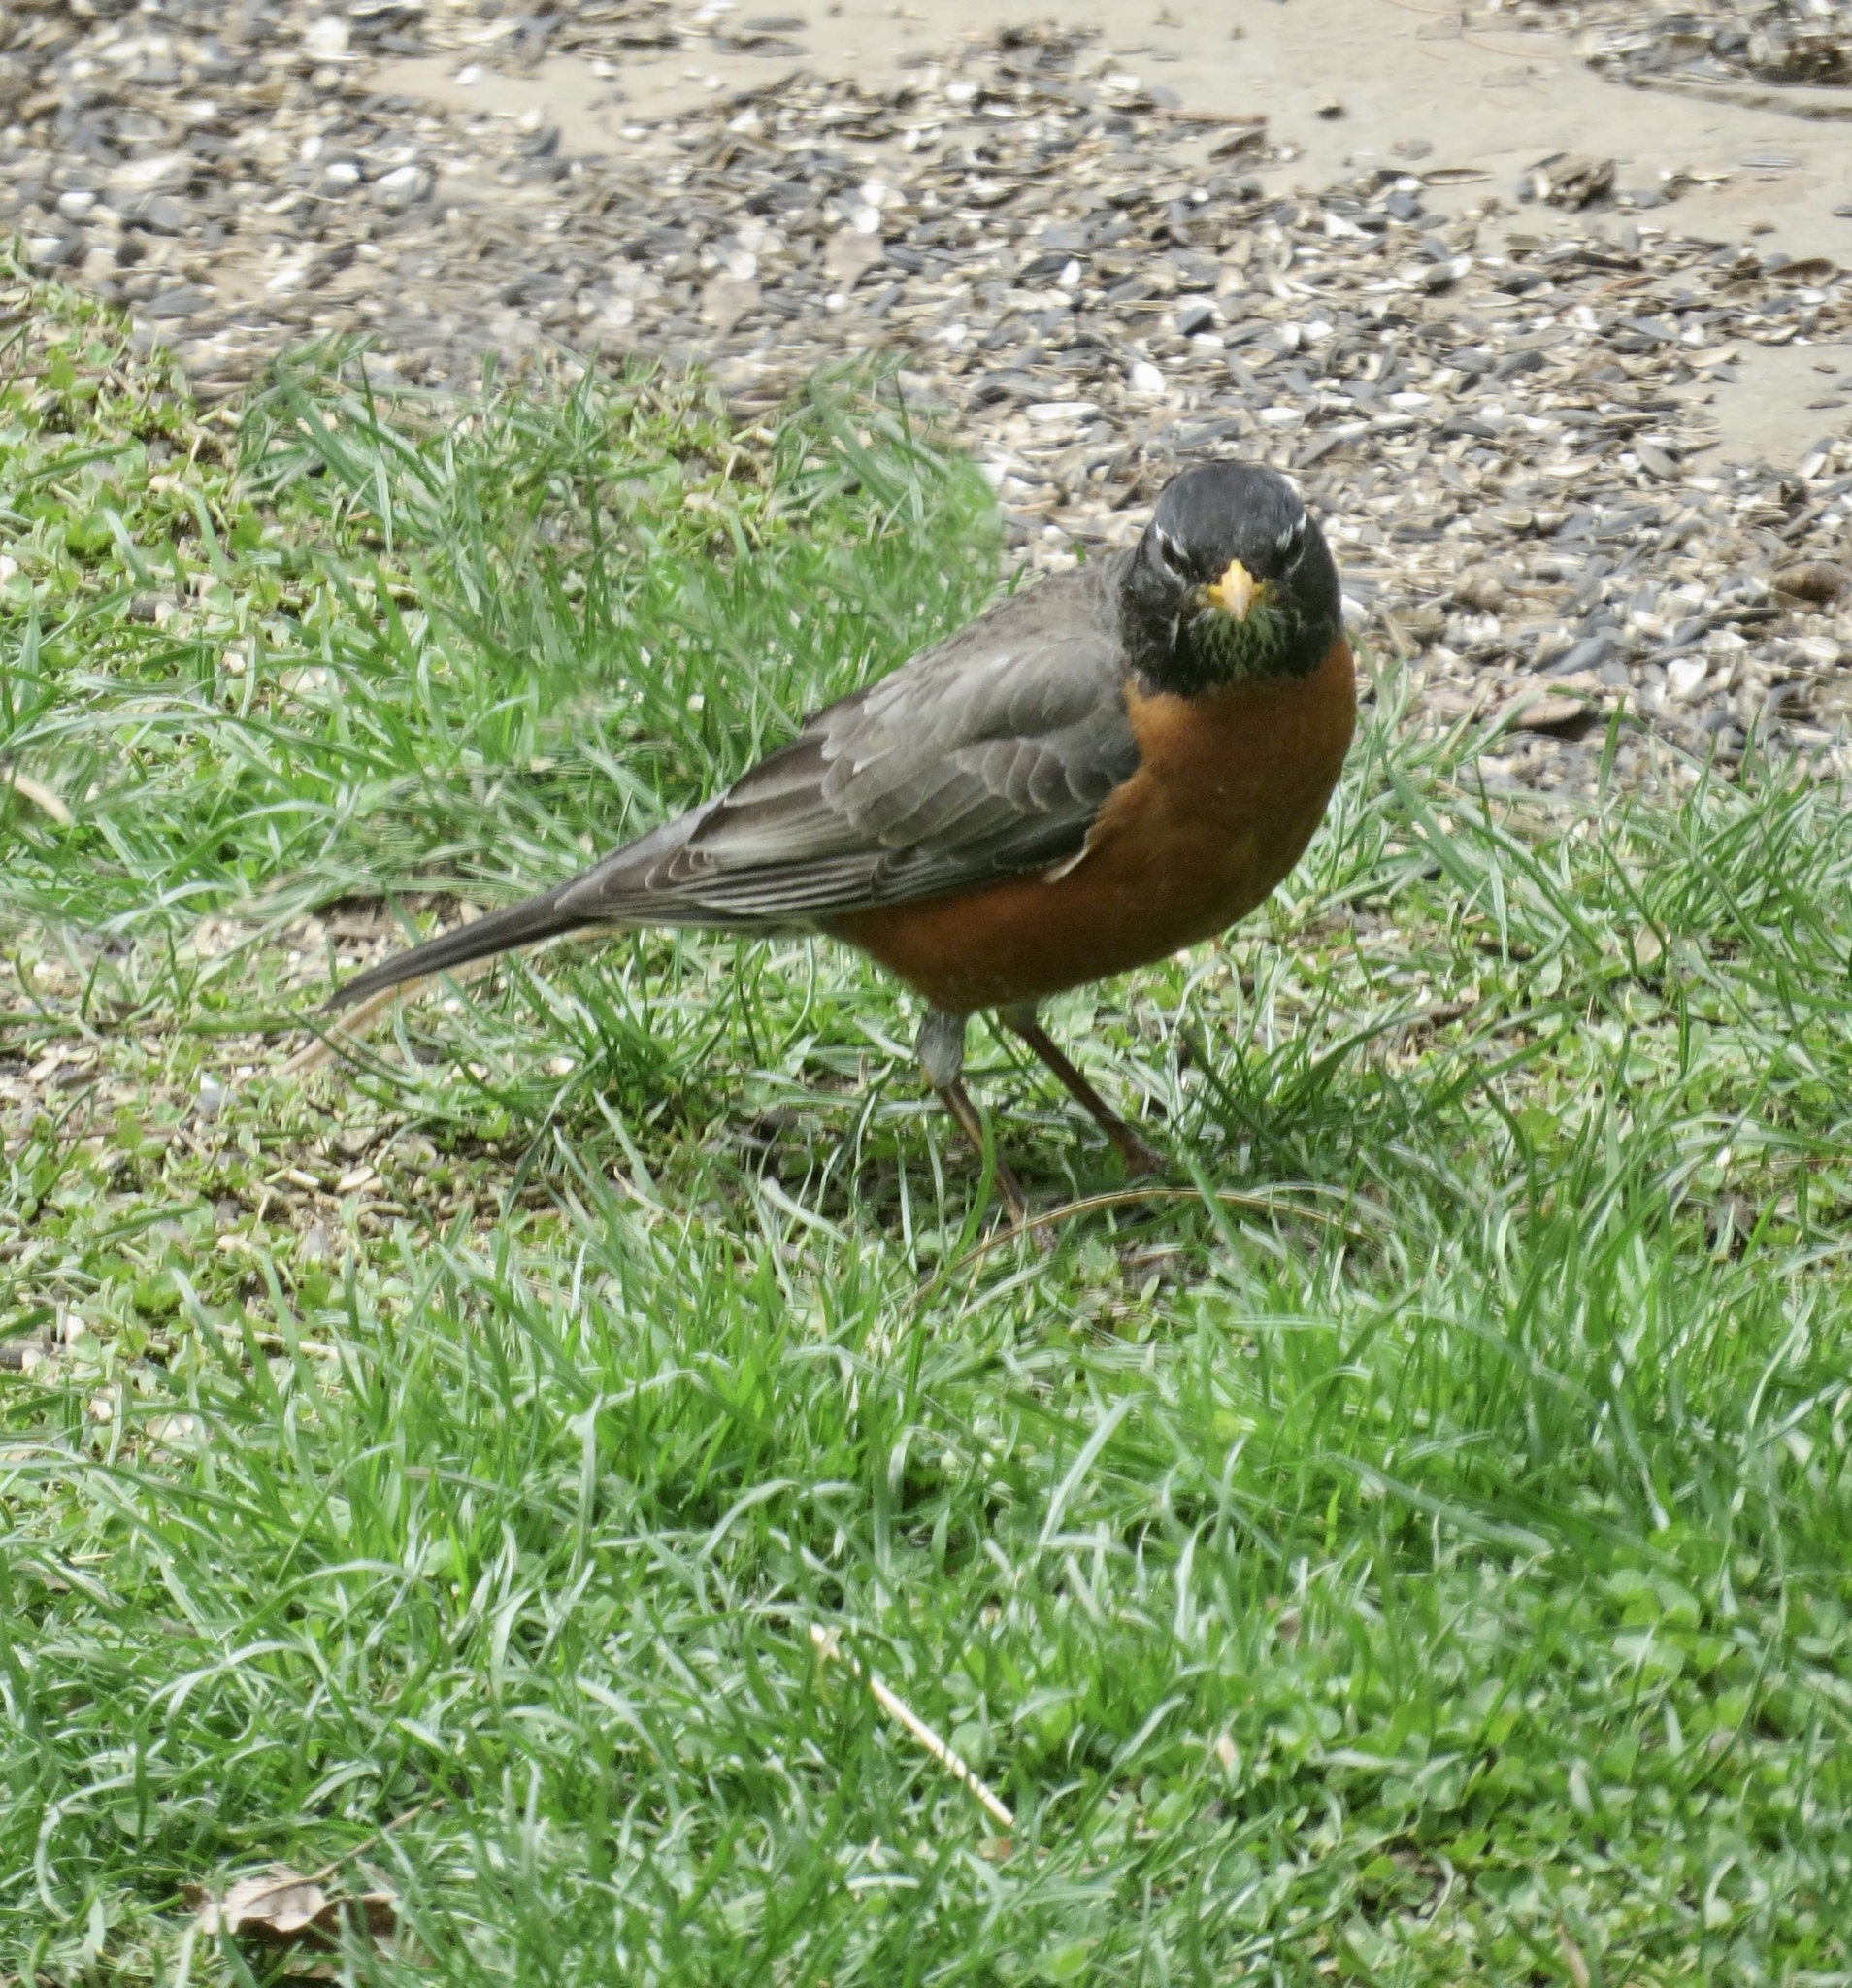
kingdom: Animalia
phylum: Chordata
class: Aves
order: Passeriformes
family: Turdidae
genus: Turdus
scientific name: Turdus migratorius
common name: American robin
